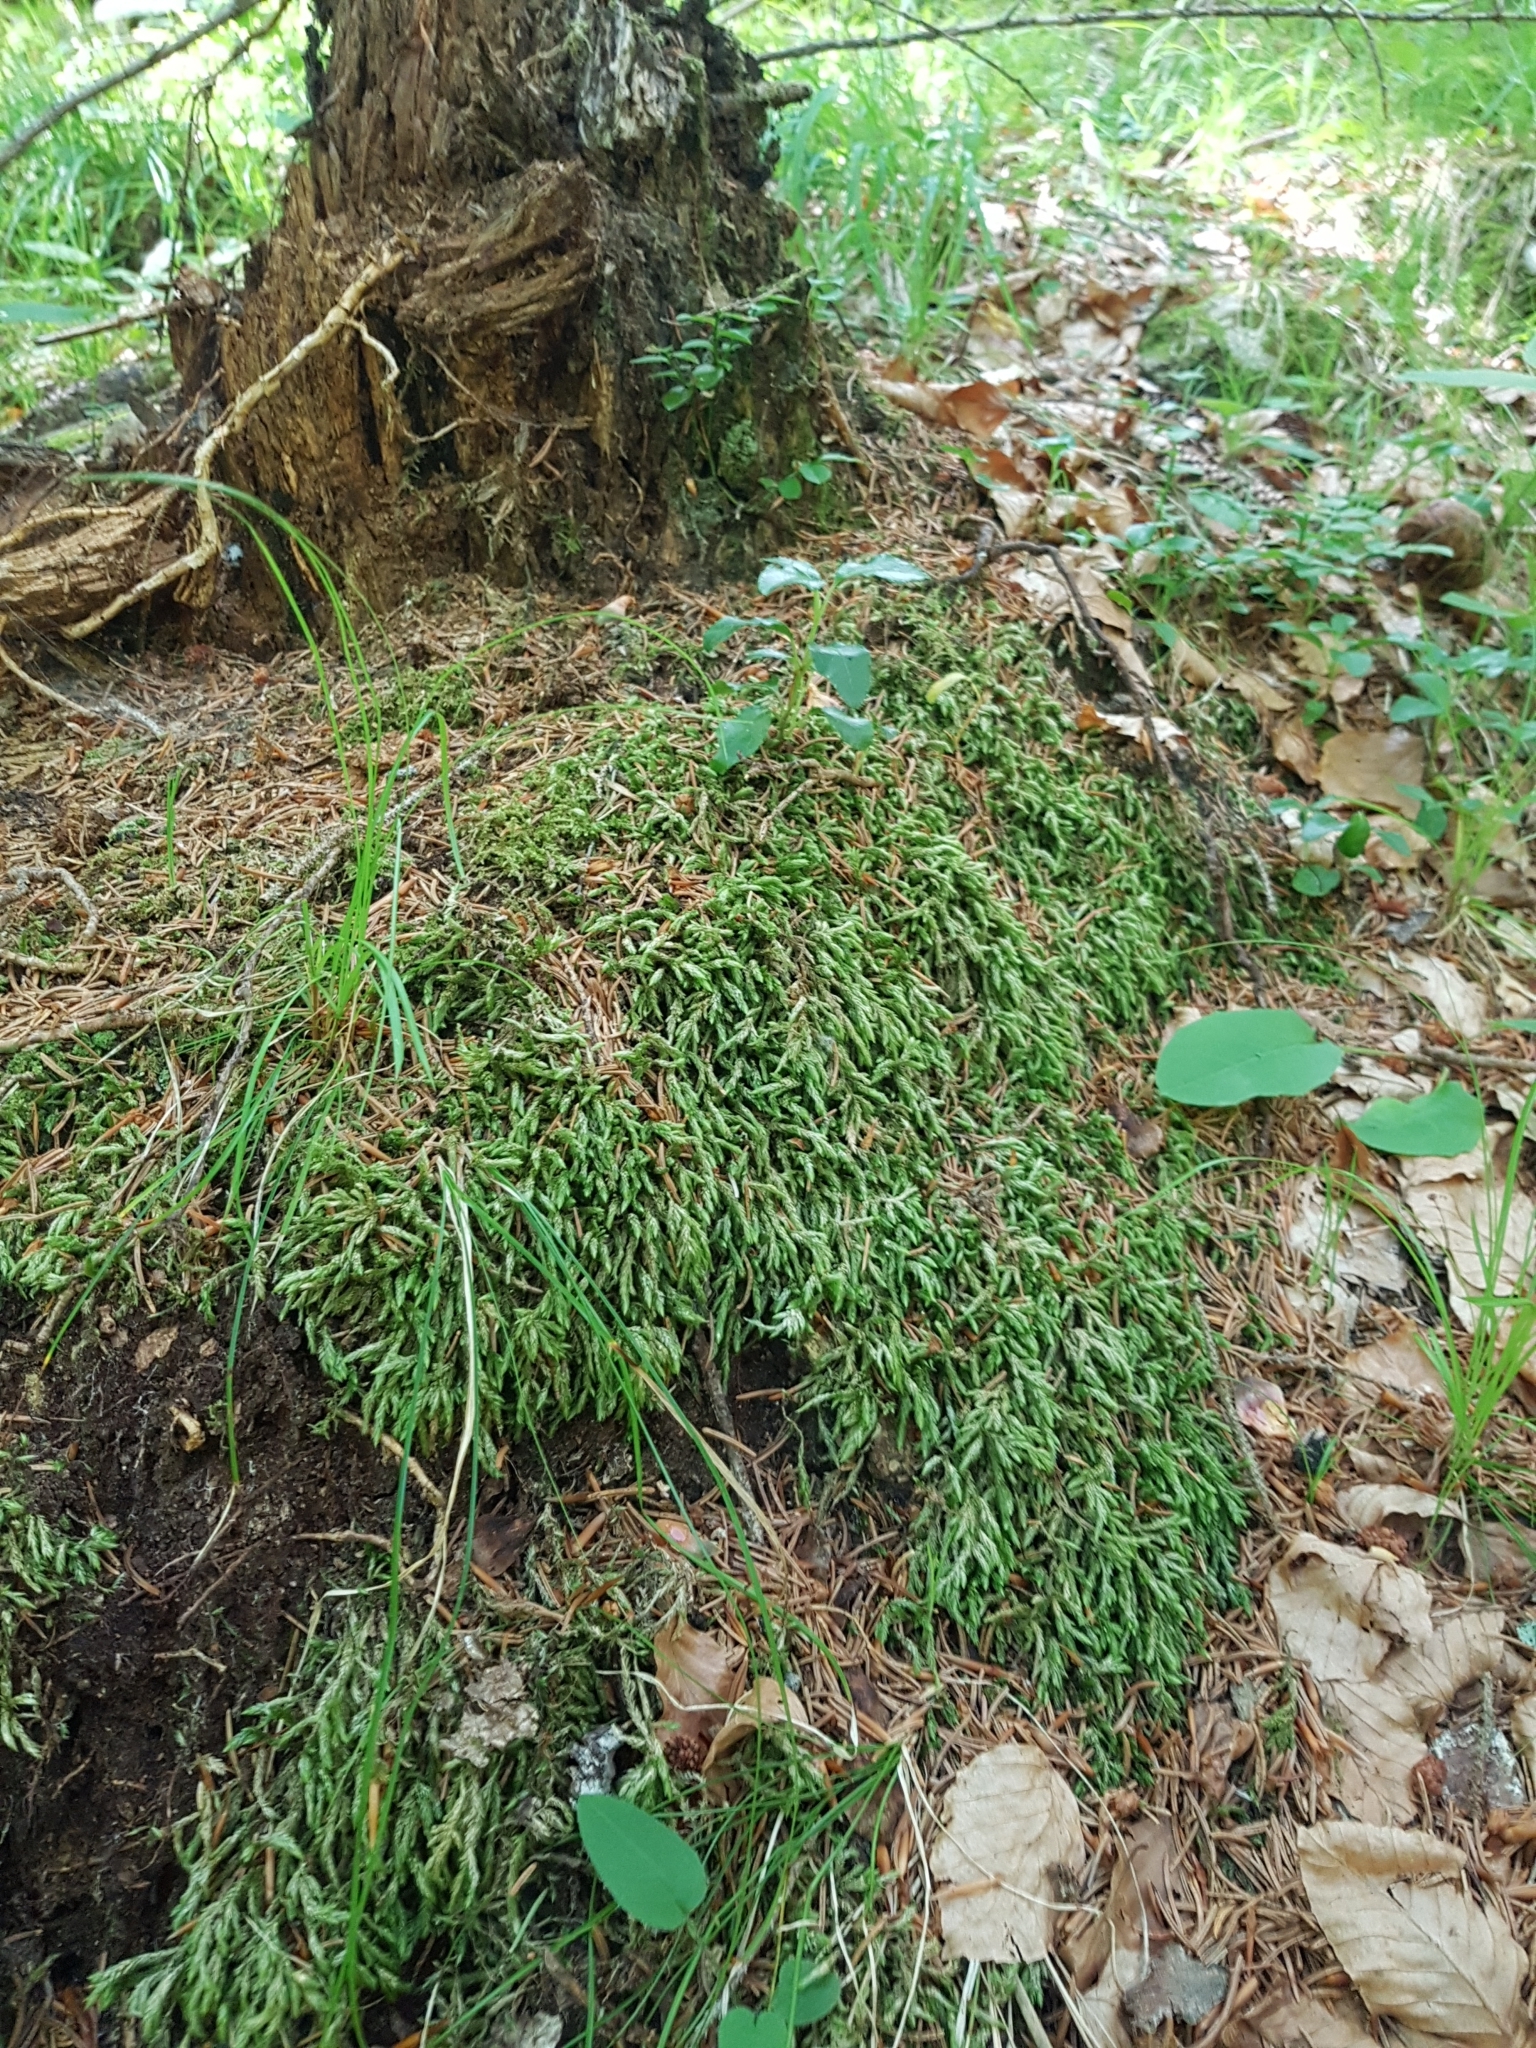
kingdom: Plantae
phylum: Bryophyta
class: Bryopsida
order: Hypnales
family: Lembophyllaceae
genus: Isothecium
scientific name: Isothecium alopecuroides
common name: Larger mouse-tail moss
